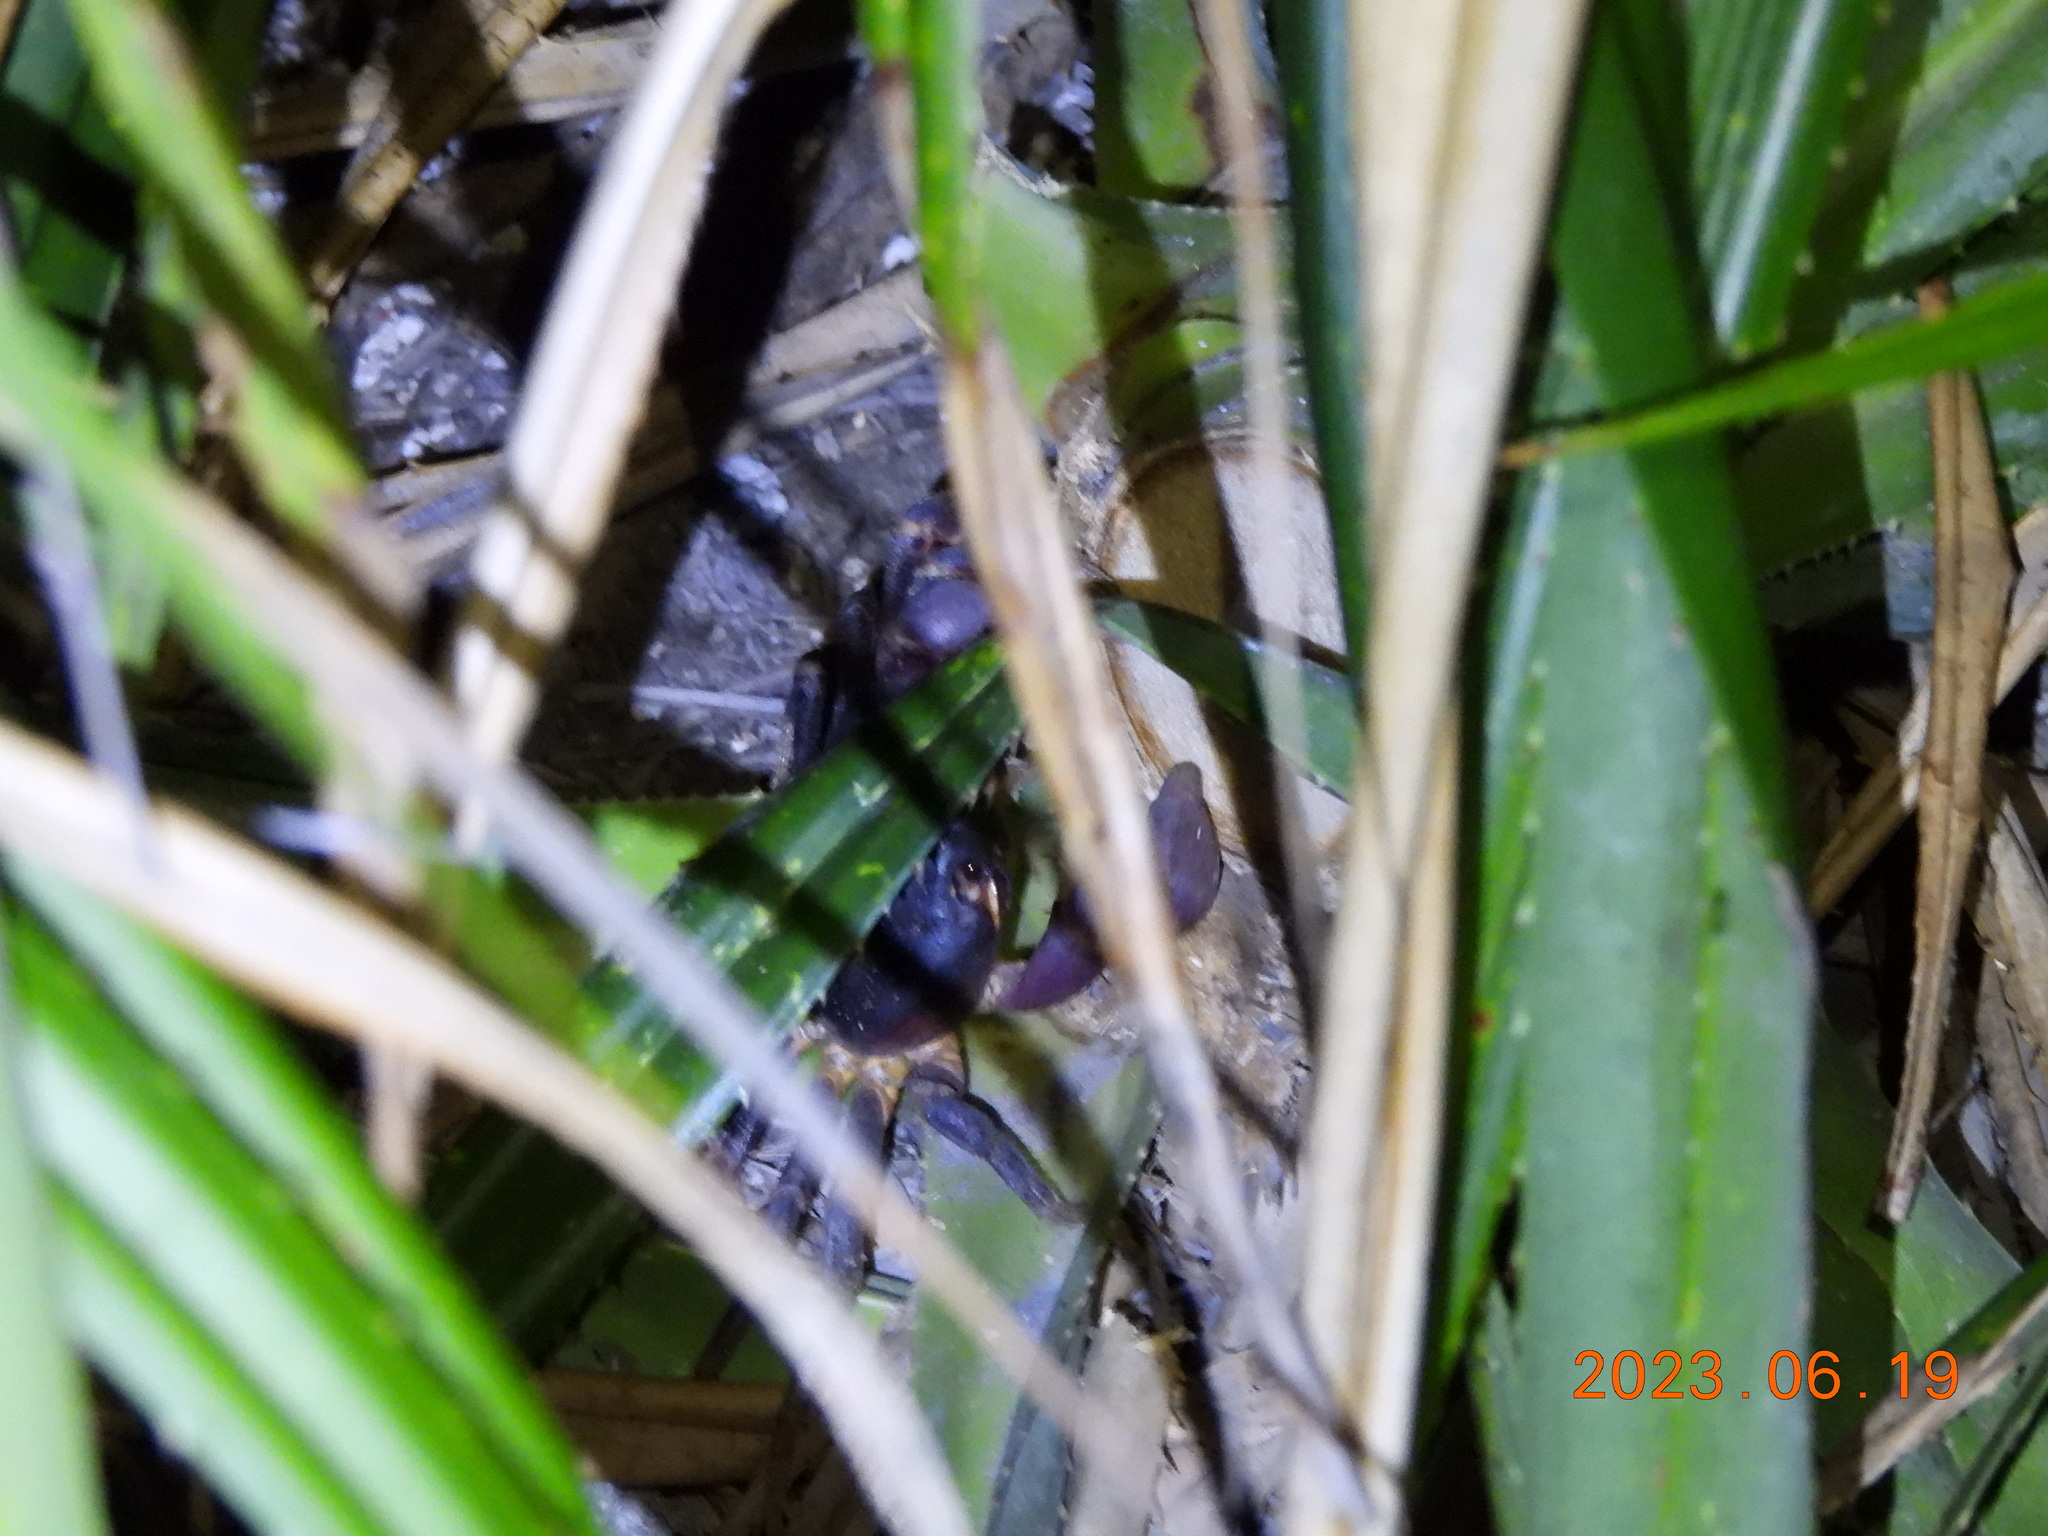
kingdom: Animalia
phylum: Arthropoda
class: Malacostraca
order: Decapoda
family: Gecarcinidae
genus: Gecarcoidea
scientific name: Gecarcoidea lalandii
